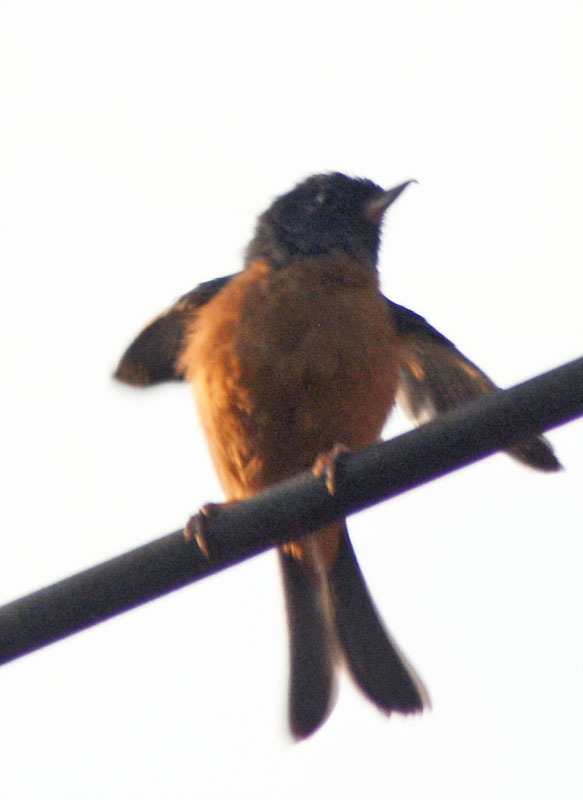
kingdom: Animalia
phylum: Chordata
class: Aves
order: Passeriformes
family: Thraupidae
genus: Diglossa
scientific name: Diglossa baritula
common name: Cinnamon-bellied flowerpiercer
